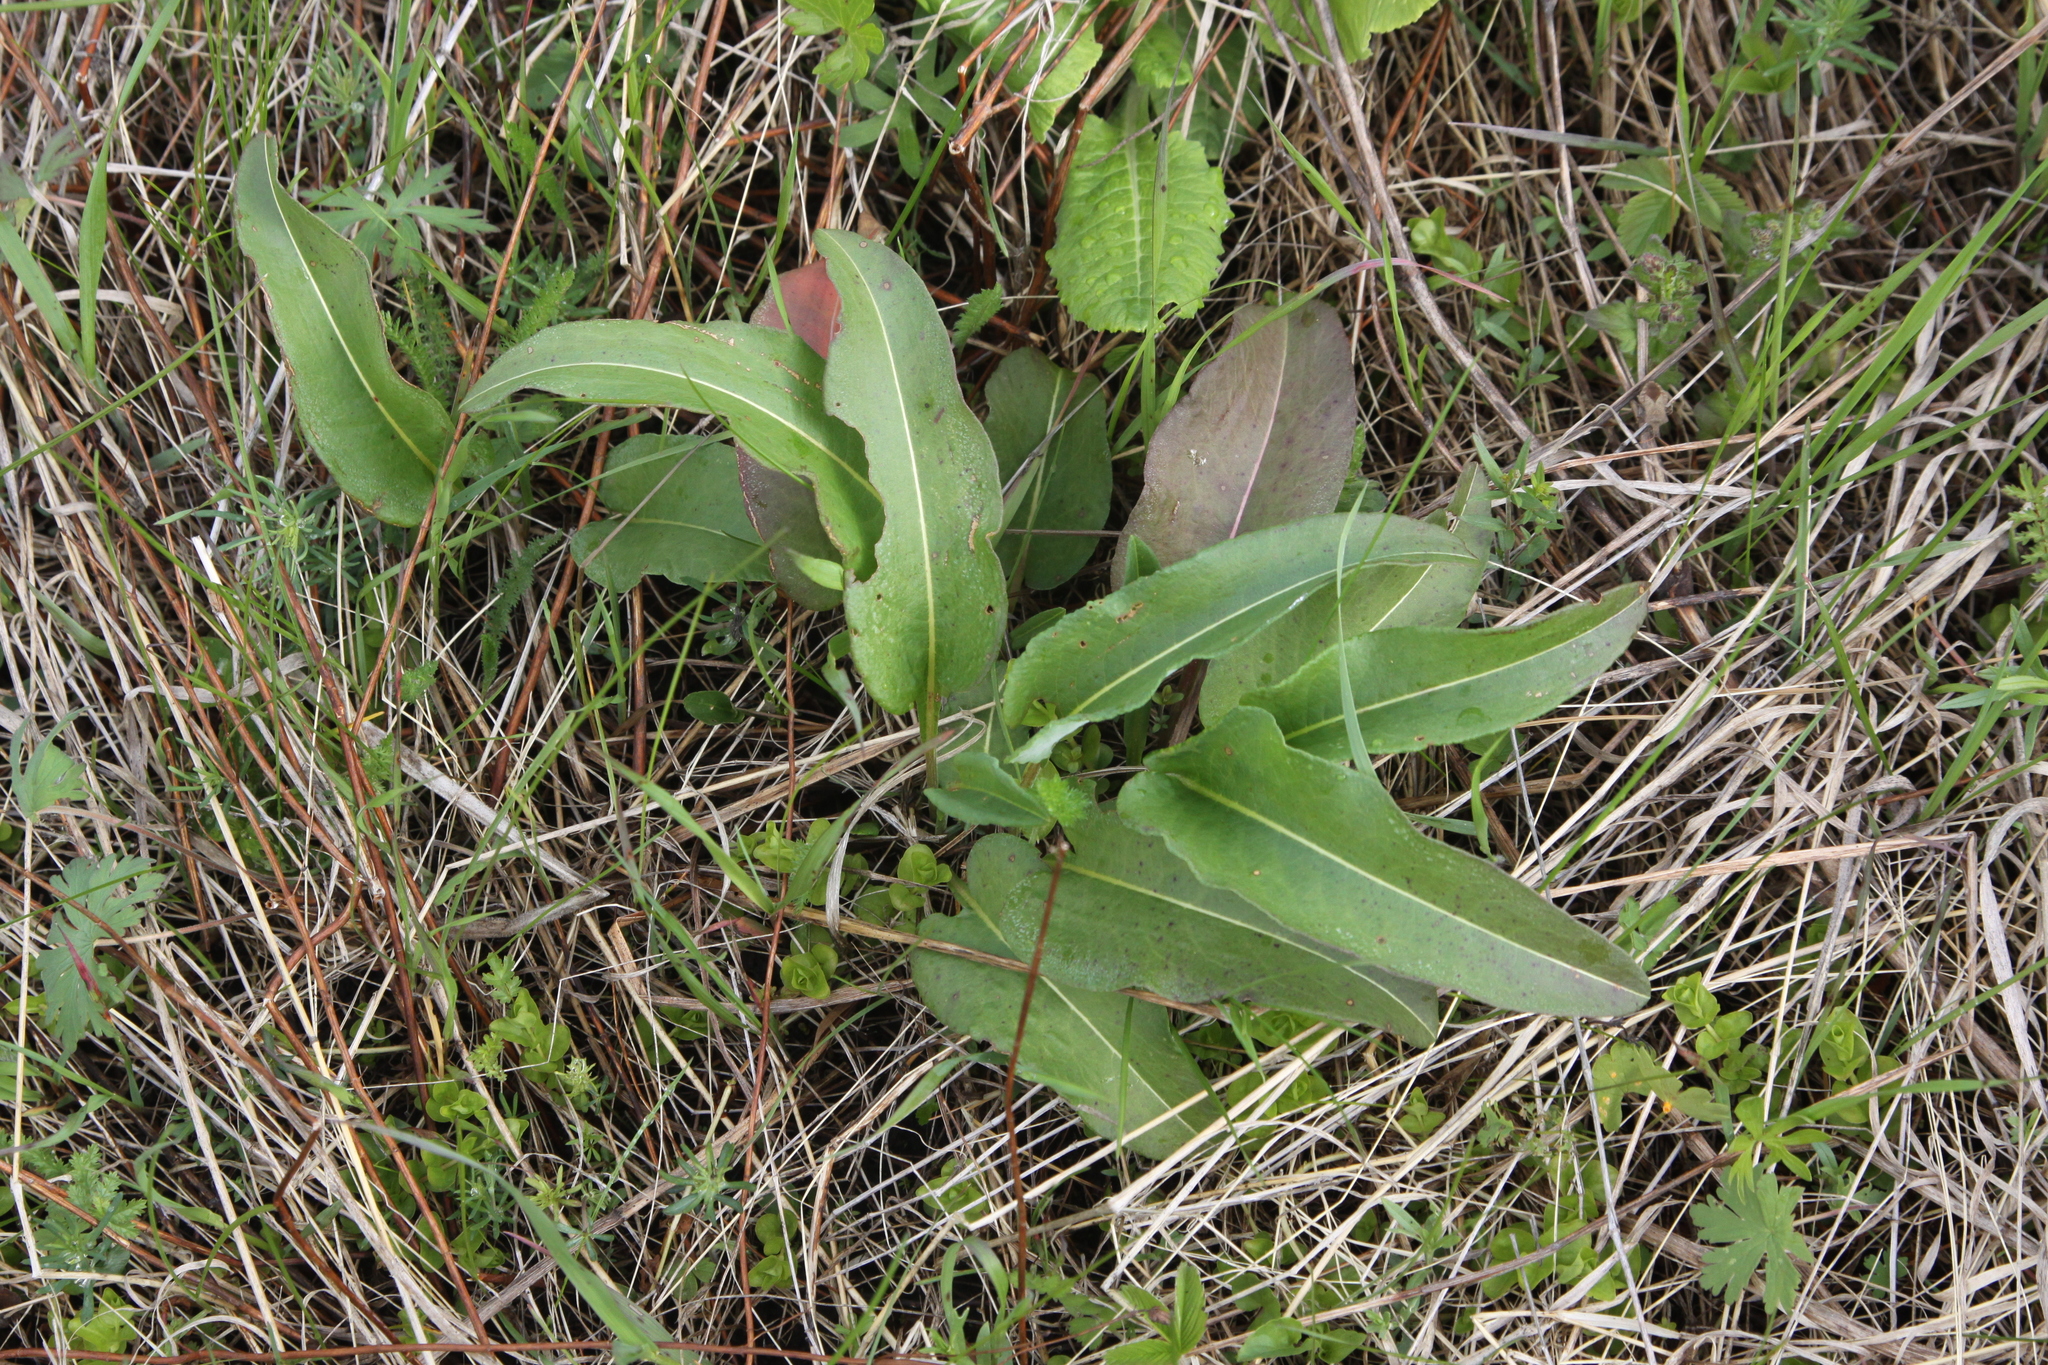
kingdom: Plantae
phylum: Tracheophyta
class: Magnoliopsida
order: Caryophyllales
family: Polygonaceae
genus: Bistorta
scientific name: Bistorta officinalis
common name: Common bistort
